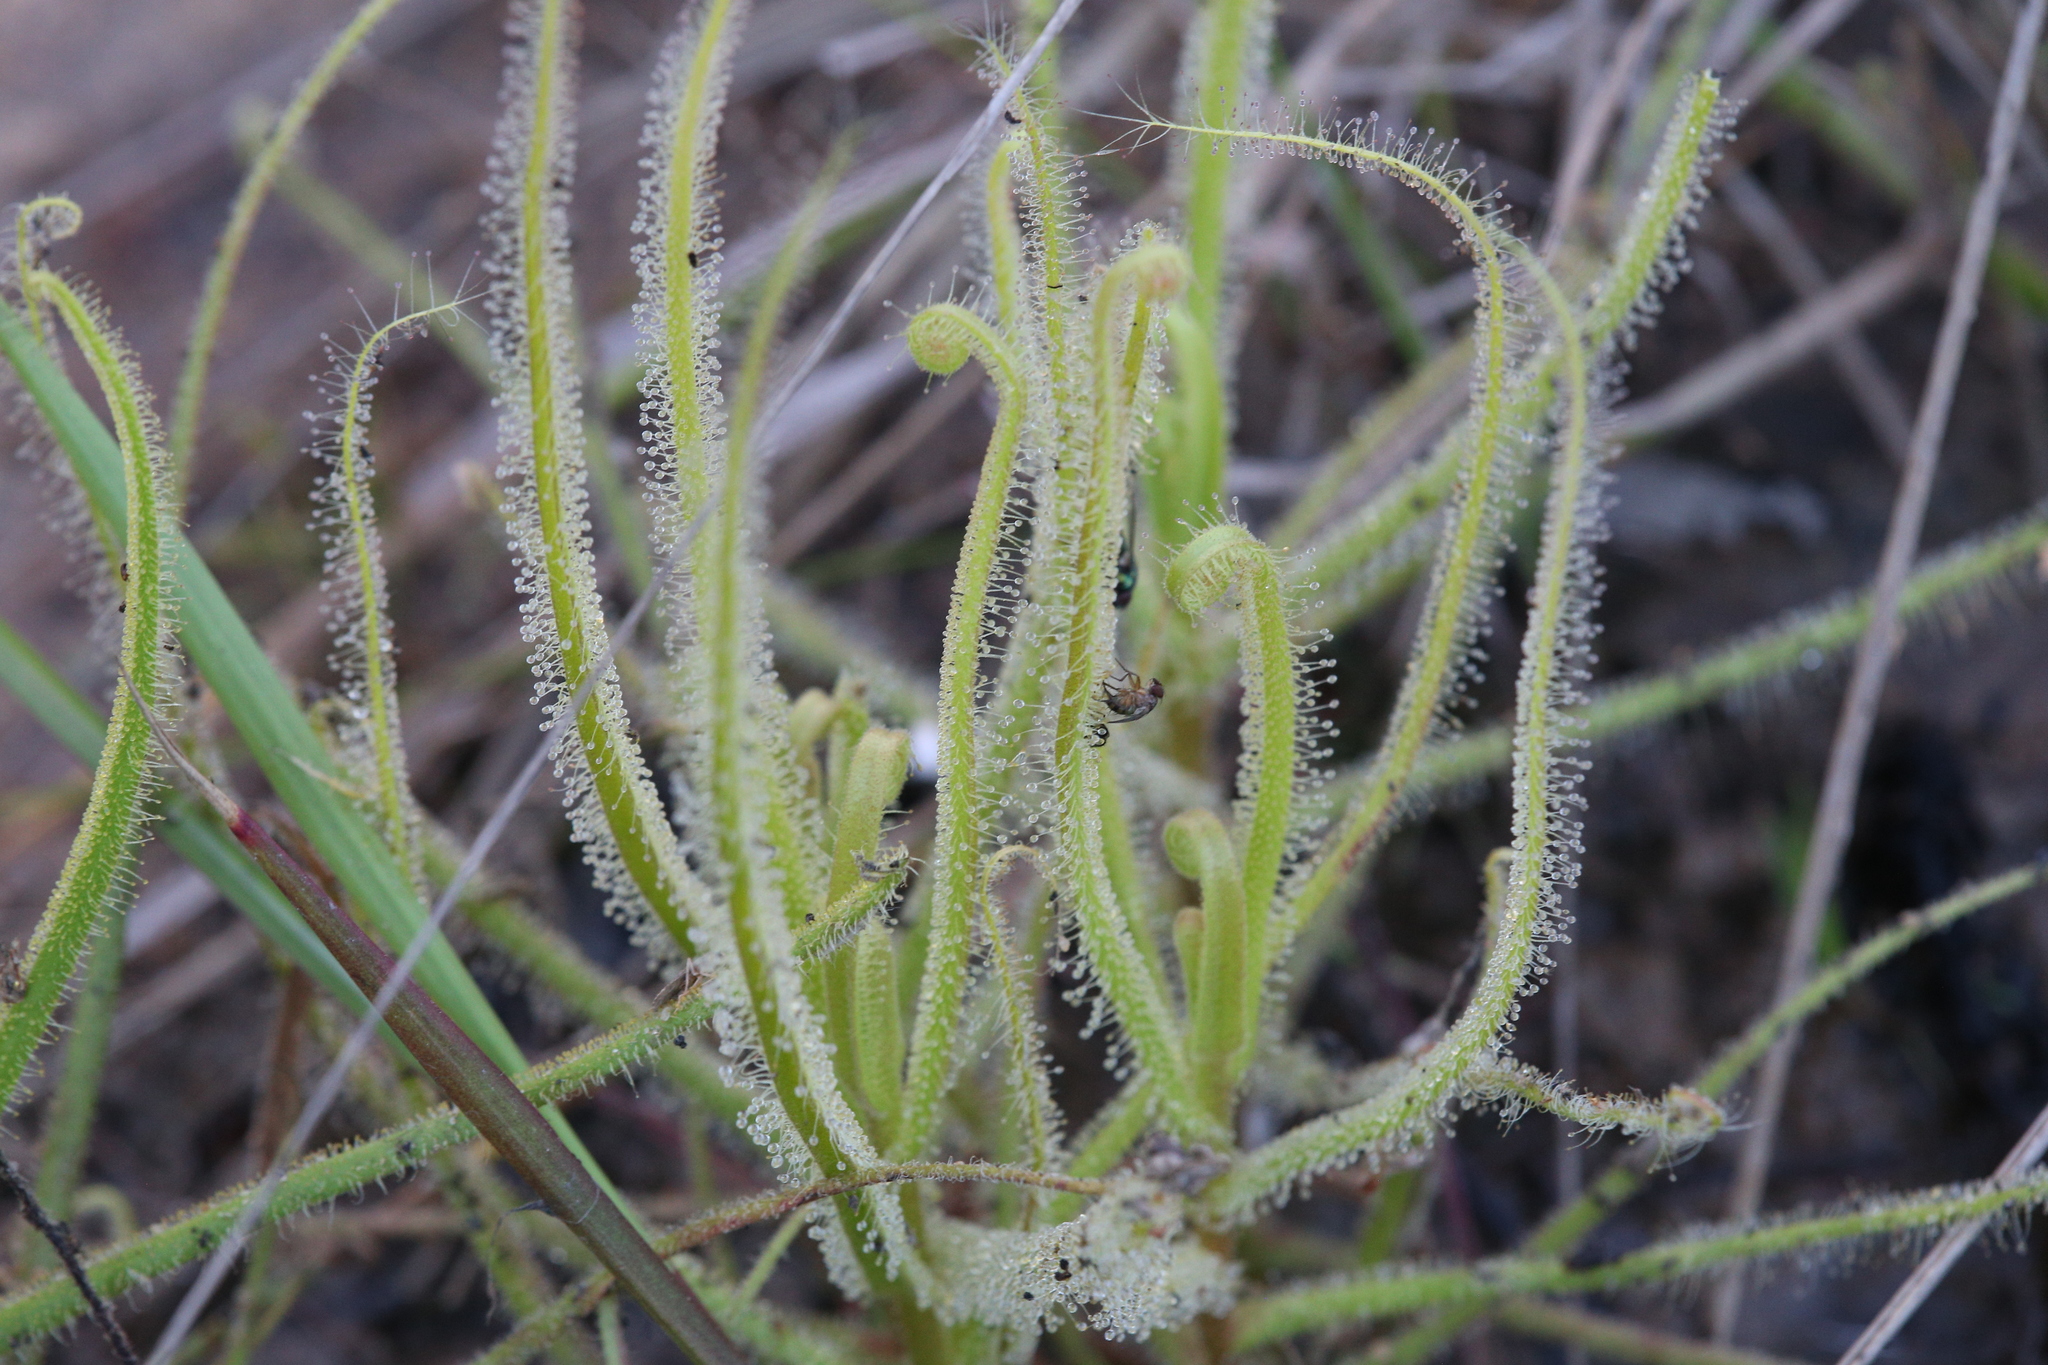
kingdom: Plantae
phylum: Tracheophyta
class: Magnoliopsida
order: Caryophyllales
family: Droseraceae
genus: Drosera
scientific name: Drosera finlaysoniana
